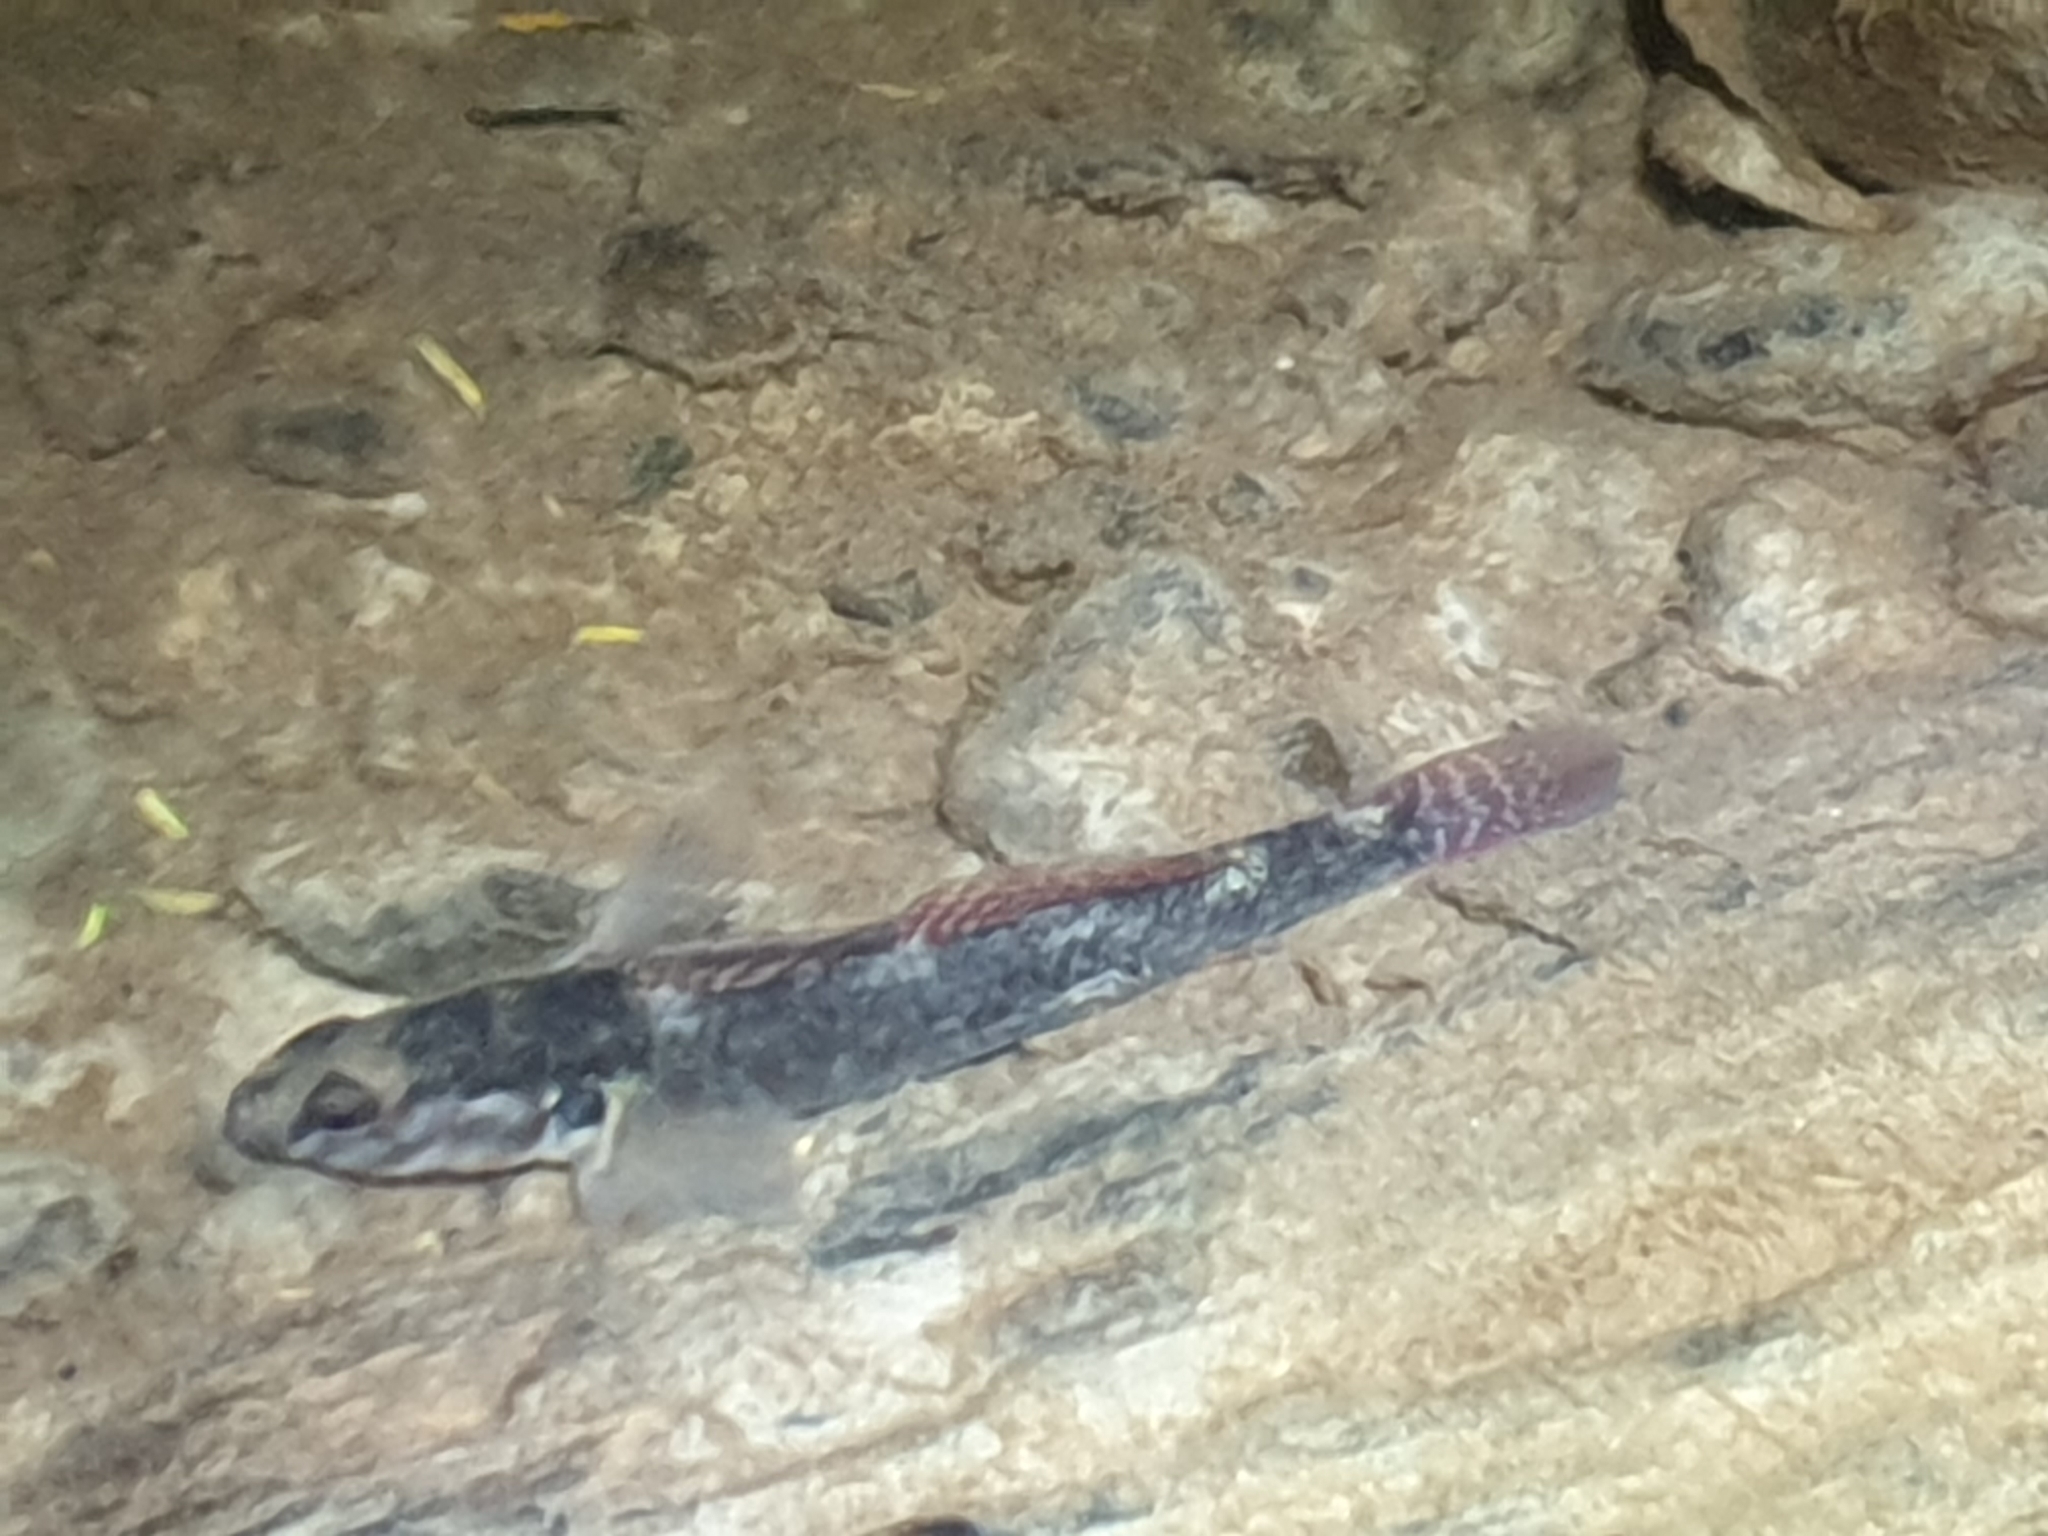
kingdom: Animalia
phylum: Chordata
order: Perciformes
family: Eleotridae
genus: Gobiomorphus
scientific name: Gobiomorphus huttoni
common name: Redfin bully
